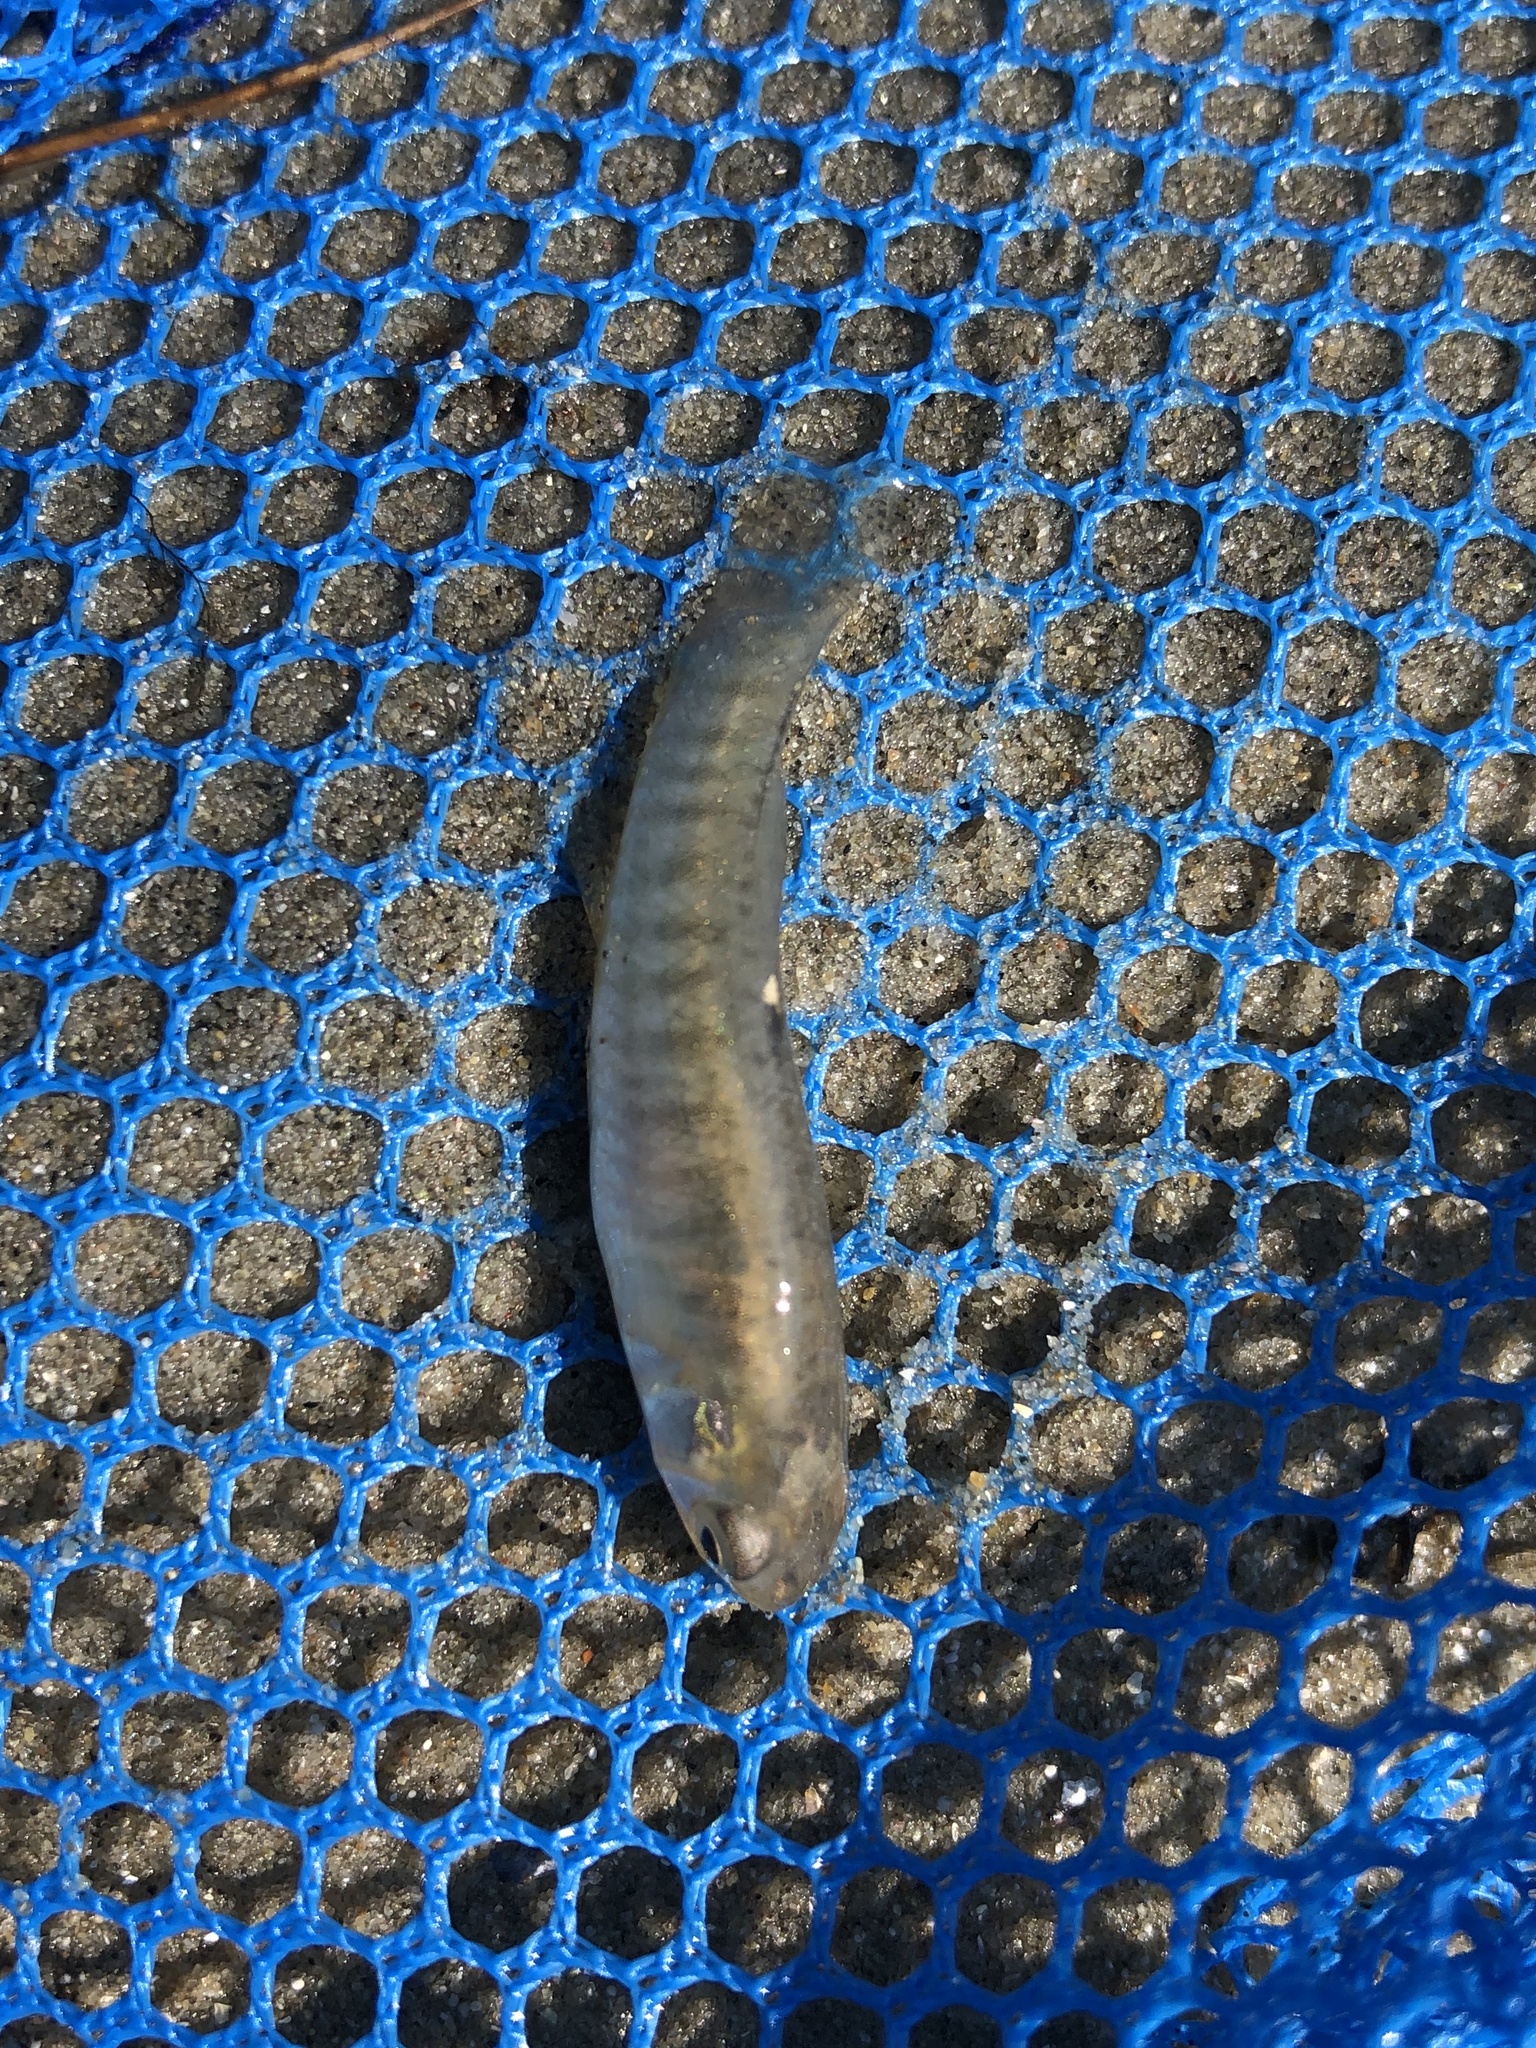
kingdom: Animalia
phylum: Chordata
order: Cyprinodontiformes
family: Fundulidae
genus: Fundulus
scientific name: Fundulus heteroclitus
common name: Mummichog
